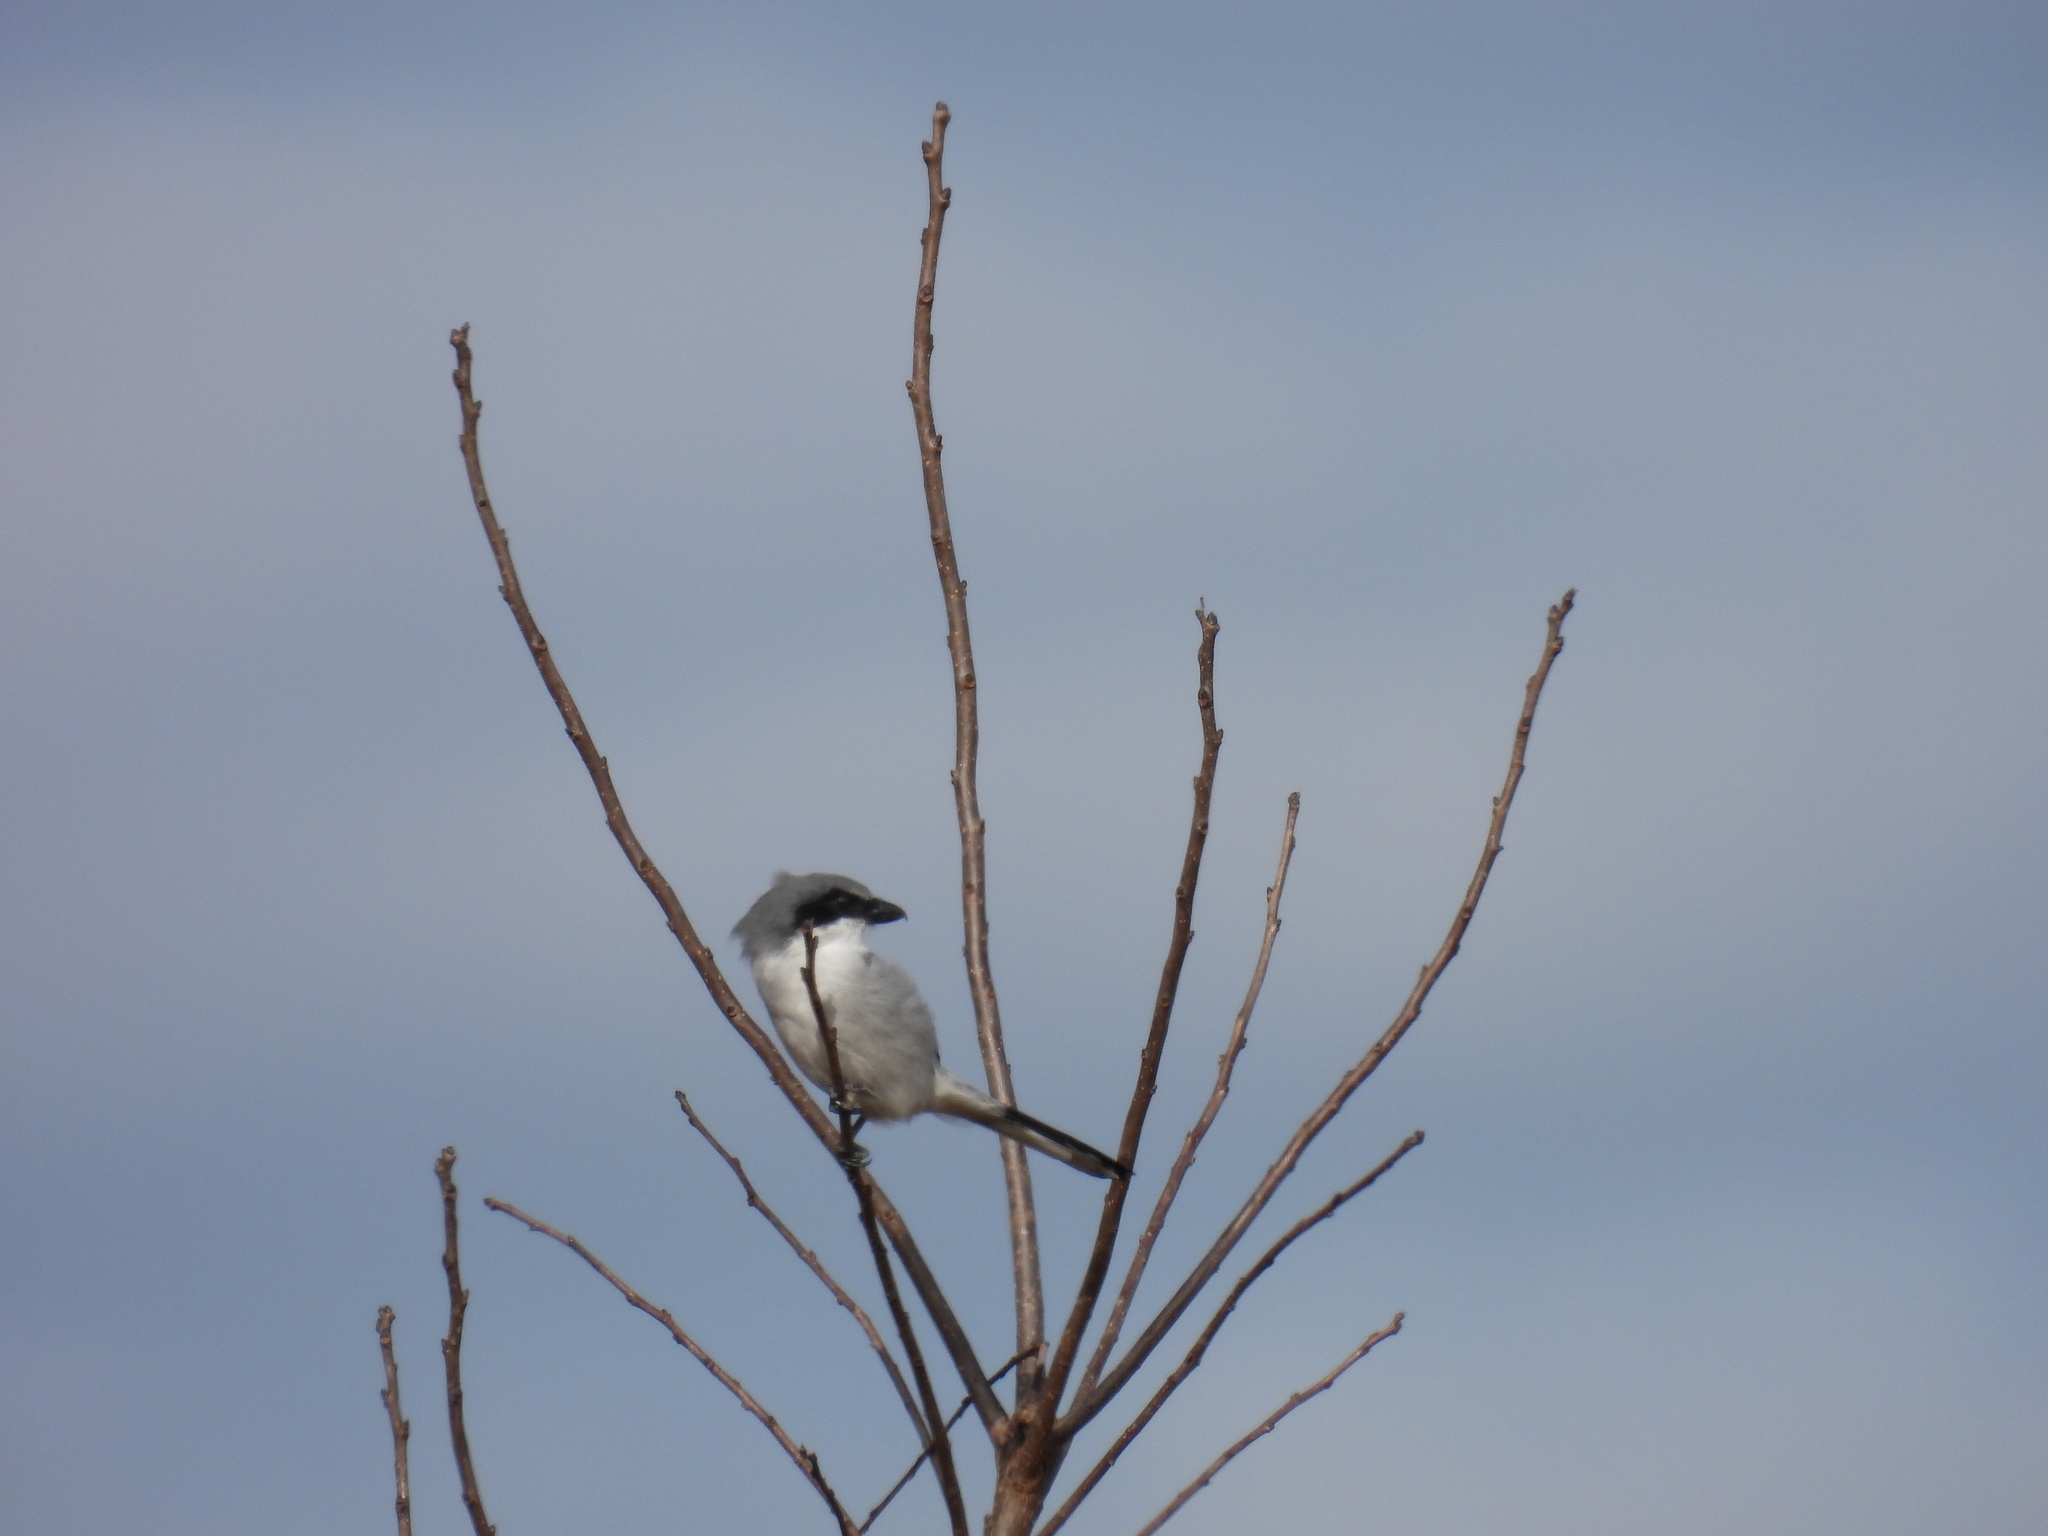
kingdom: Animalia
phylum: Chordata
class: Aves
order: Passeriformes
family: Laniidae
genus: Lanius
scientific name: Lanius ludovicianus
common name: Loggerhead shrike
